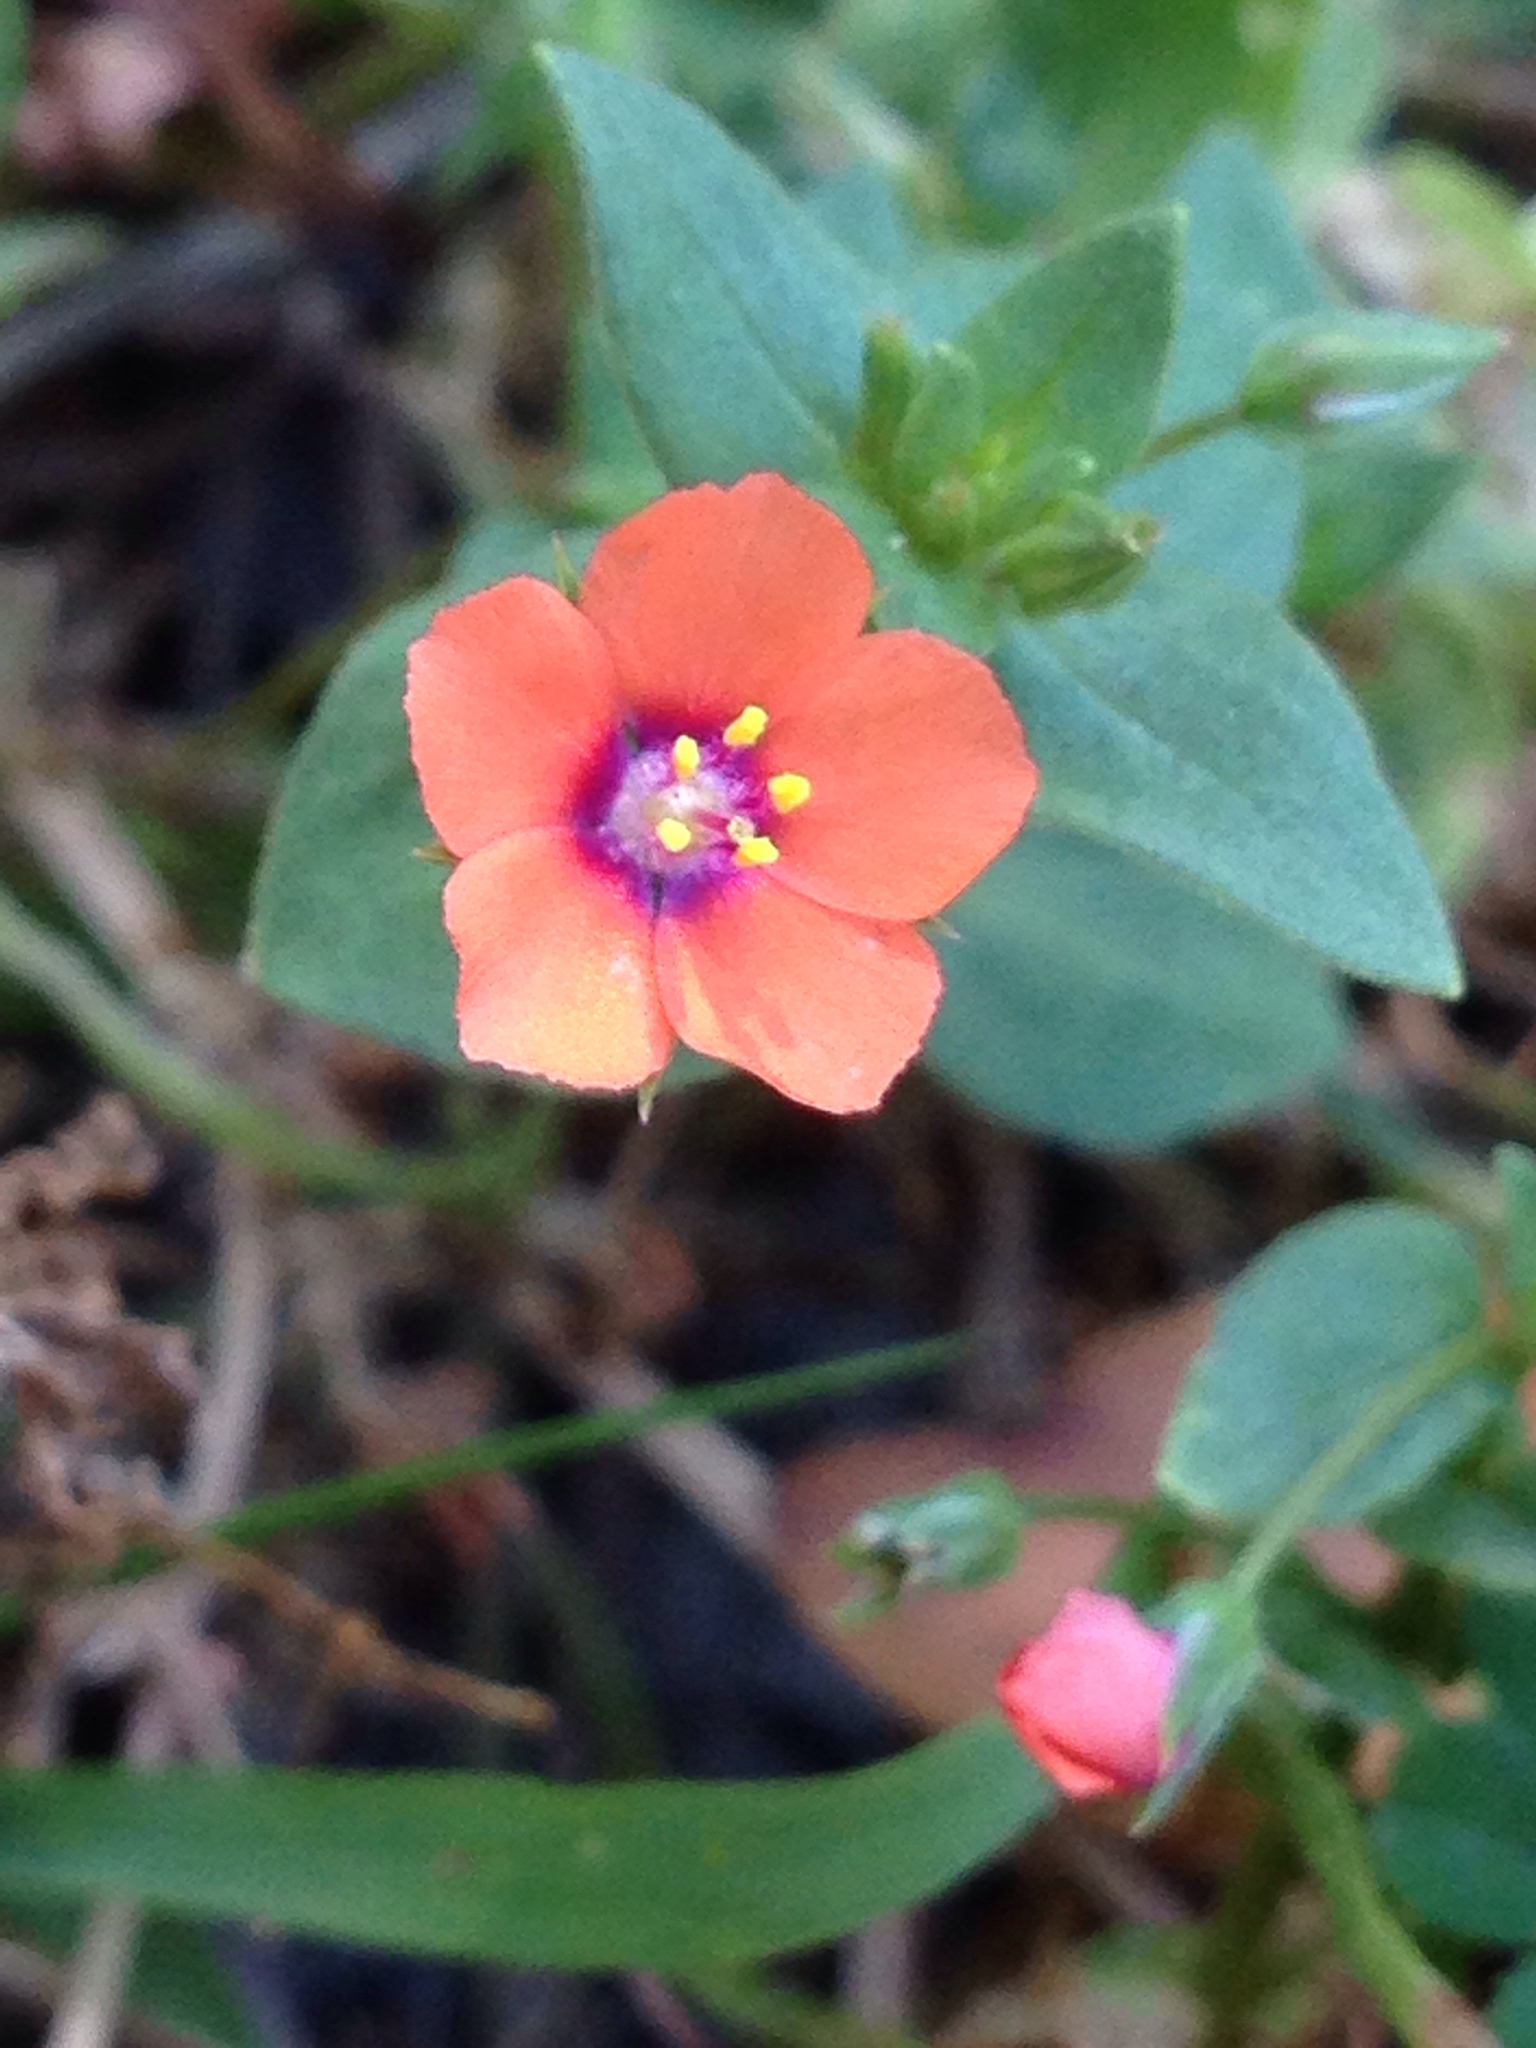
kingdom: Plantae
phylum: Tracheophyta
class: Magnoliopsida
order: Ericales
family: Primulaceae
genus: Lysimachia
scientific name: Lysimachia arvensis
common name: Scarlet pimpernel
